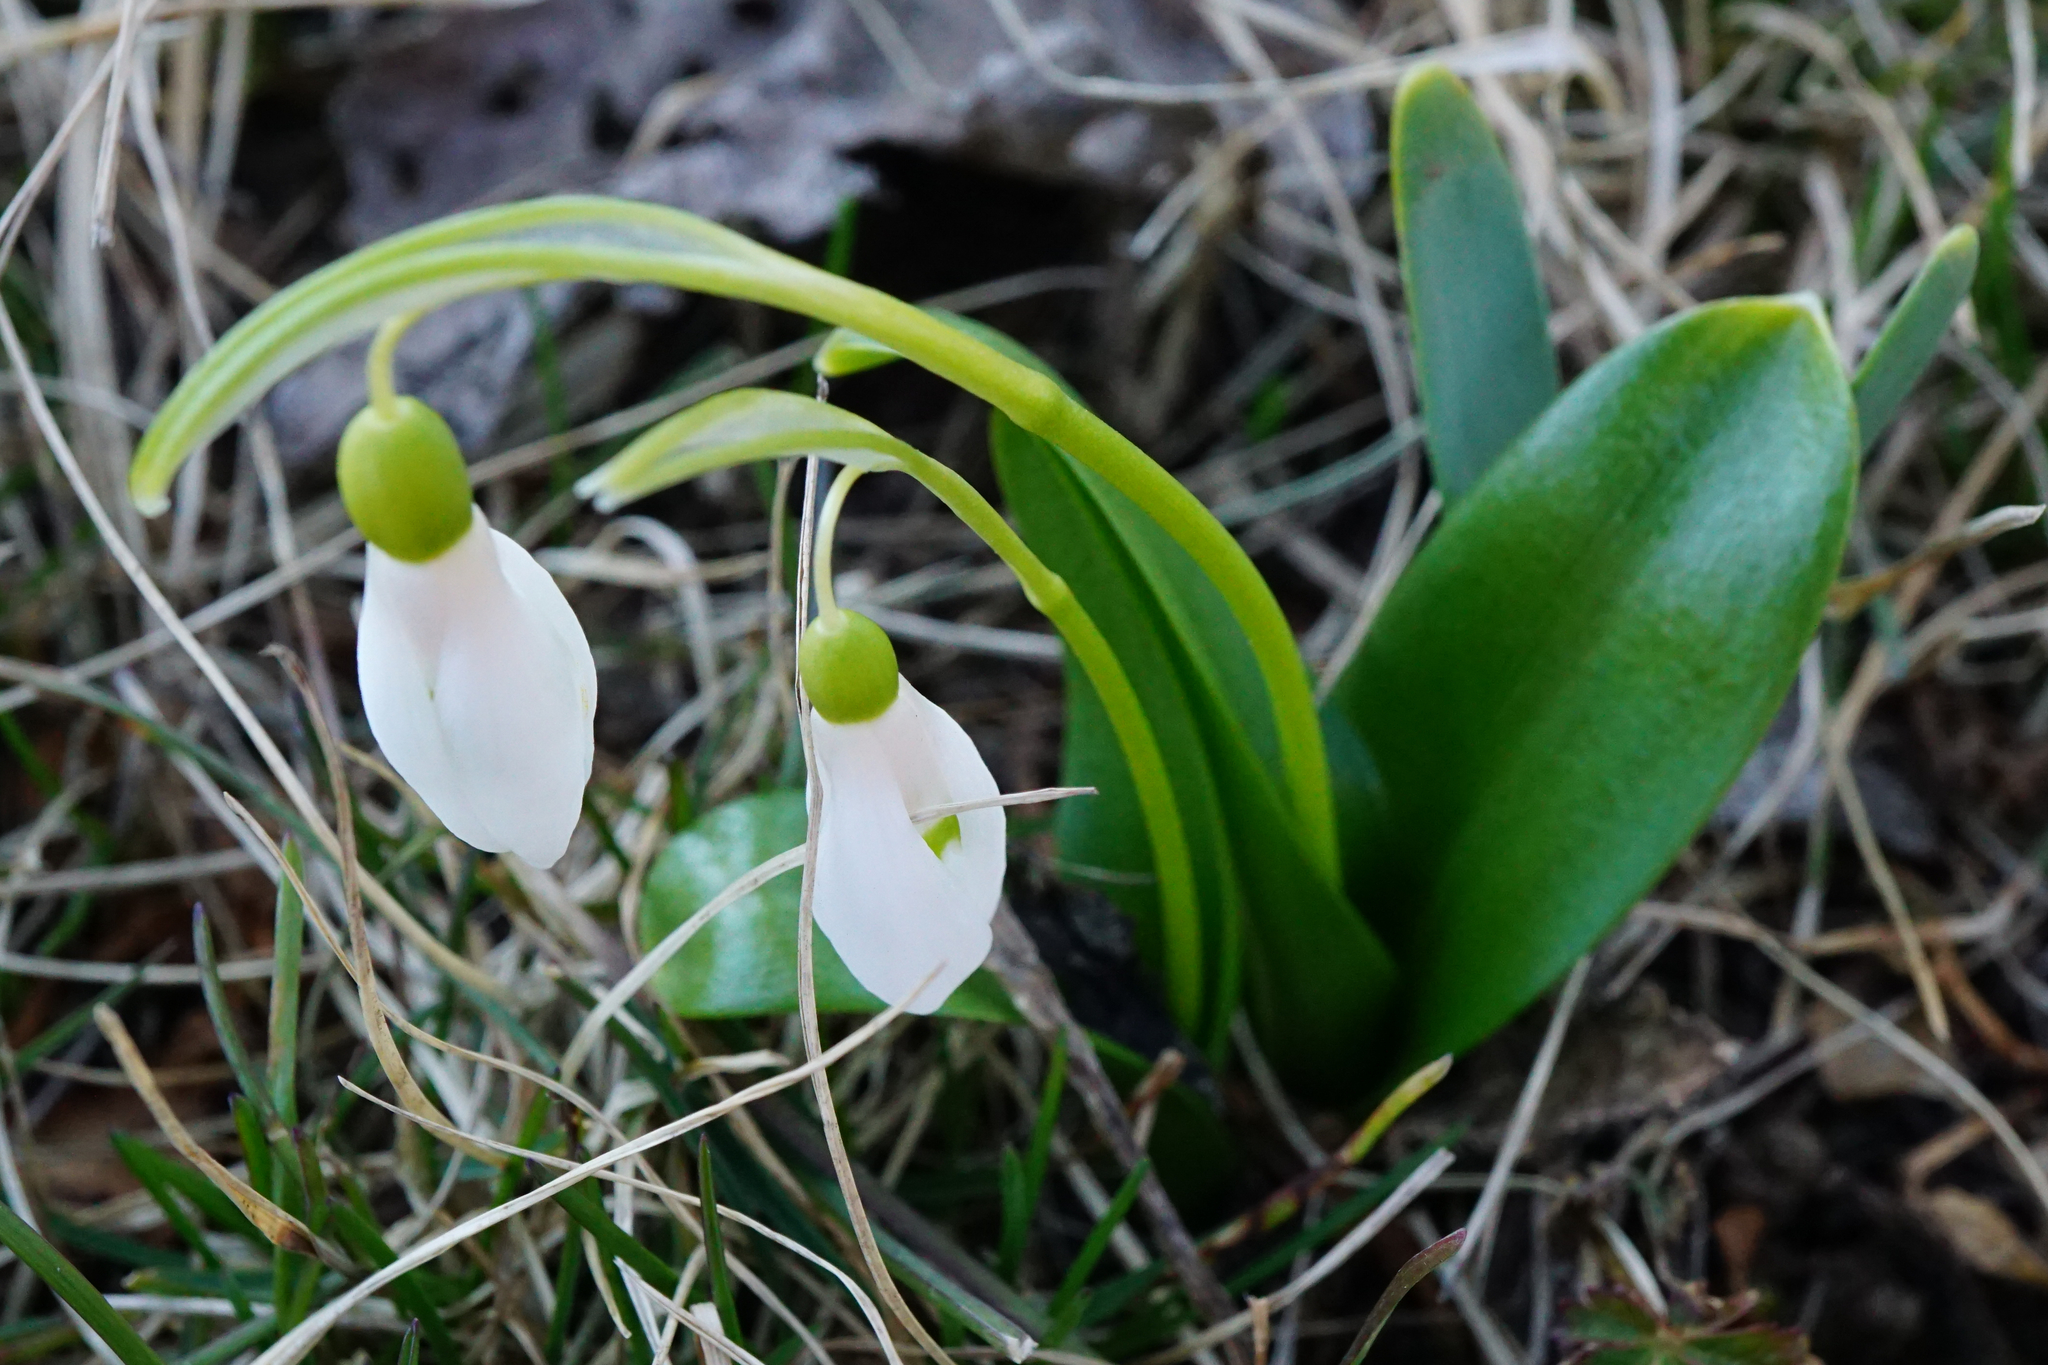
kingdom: Plantae
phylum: Tracheophyta
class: Liliopsida
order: Asparagales
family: Amaryllidaceae
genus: Galanthus
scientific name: Galanthus woronowii
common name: Green snowdrop
